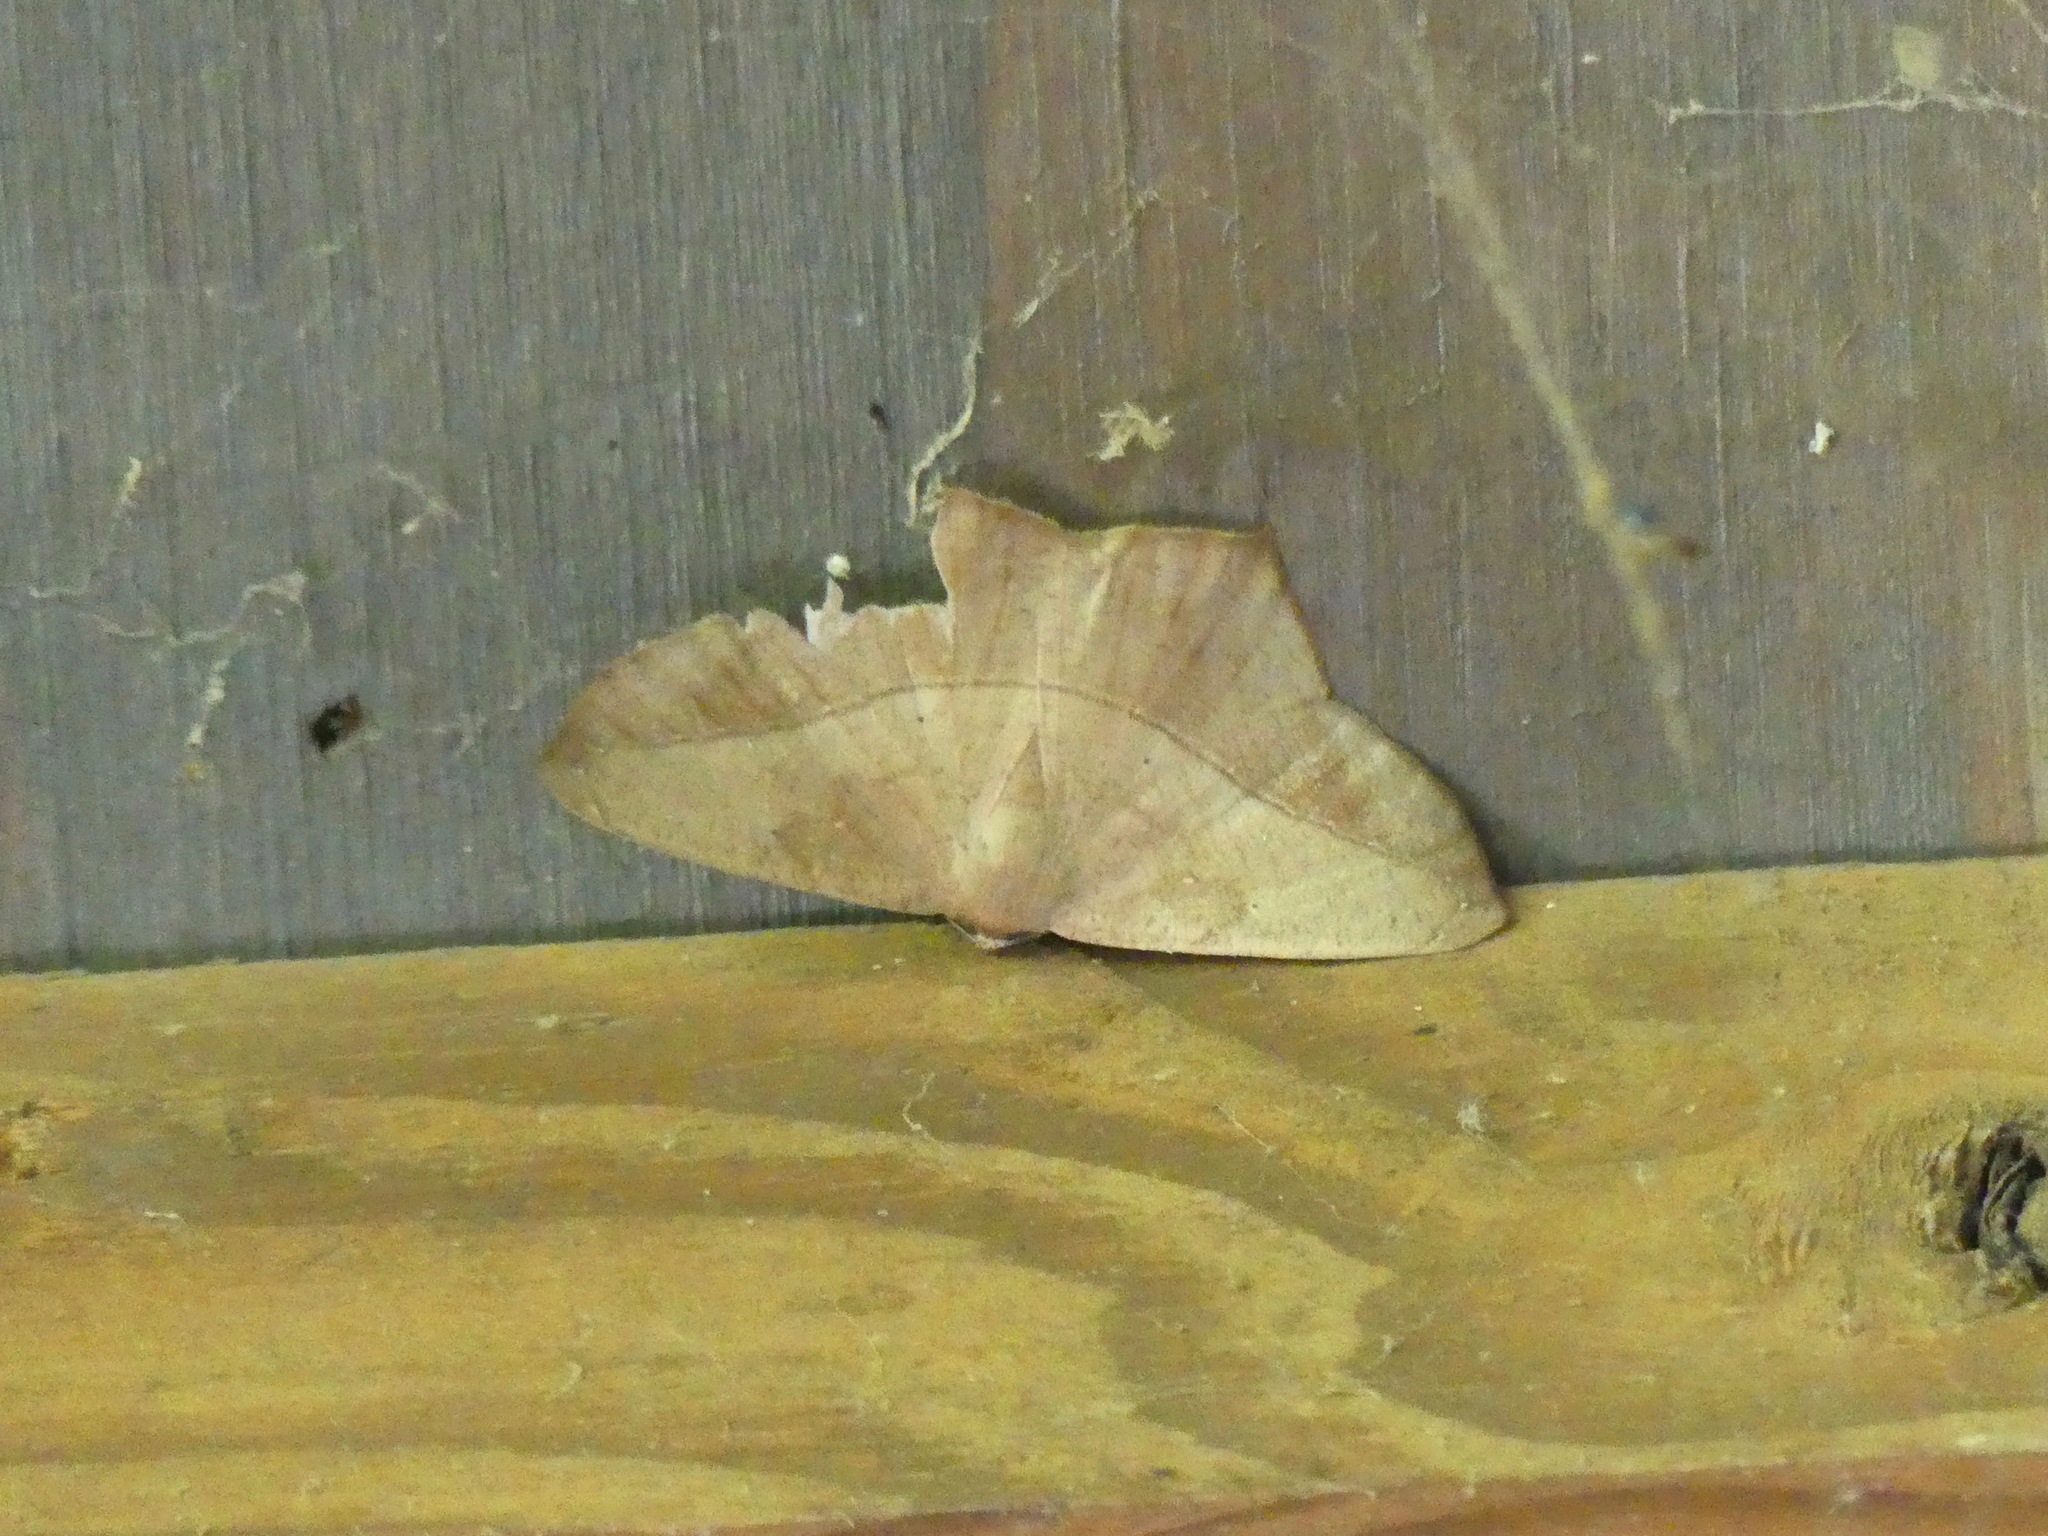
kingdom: Animalia
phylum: Arthropoda
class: Insecta
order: Lepidoptera
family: Geometridae
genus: Prochoerodes
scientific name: Prochoerodes lineola
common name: Large maple spanworm
